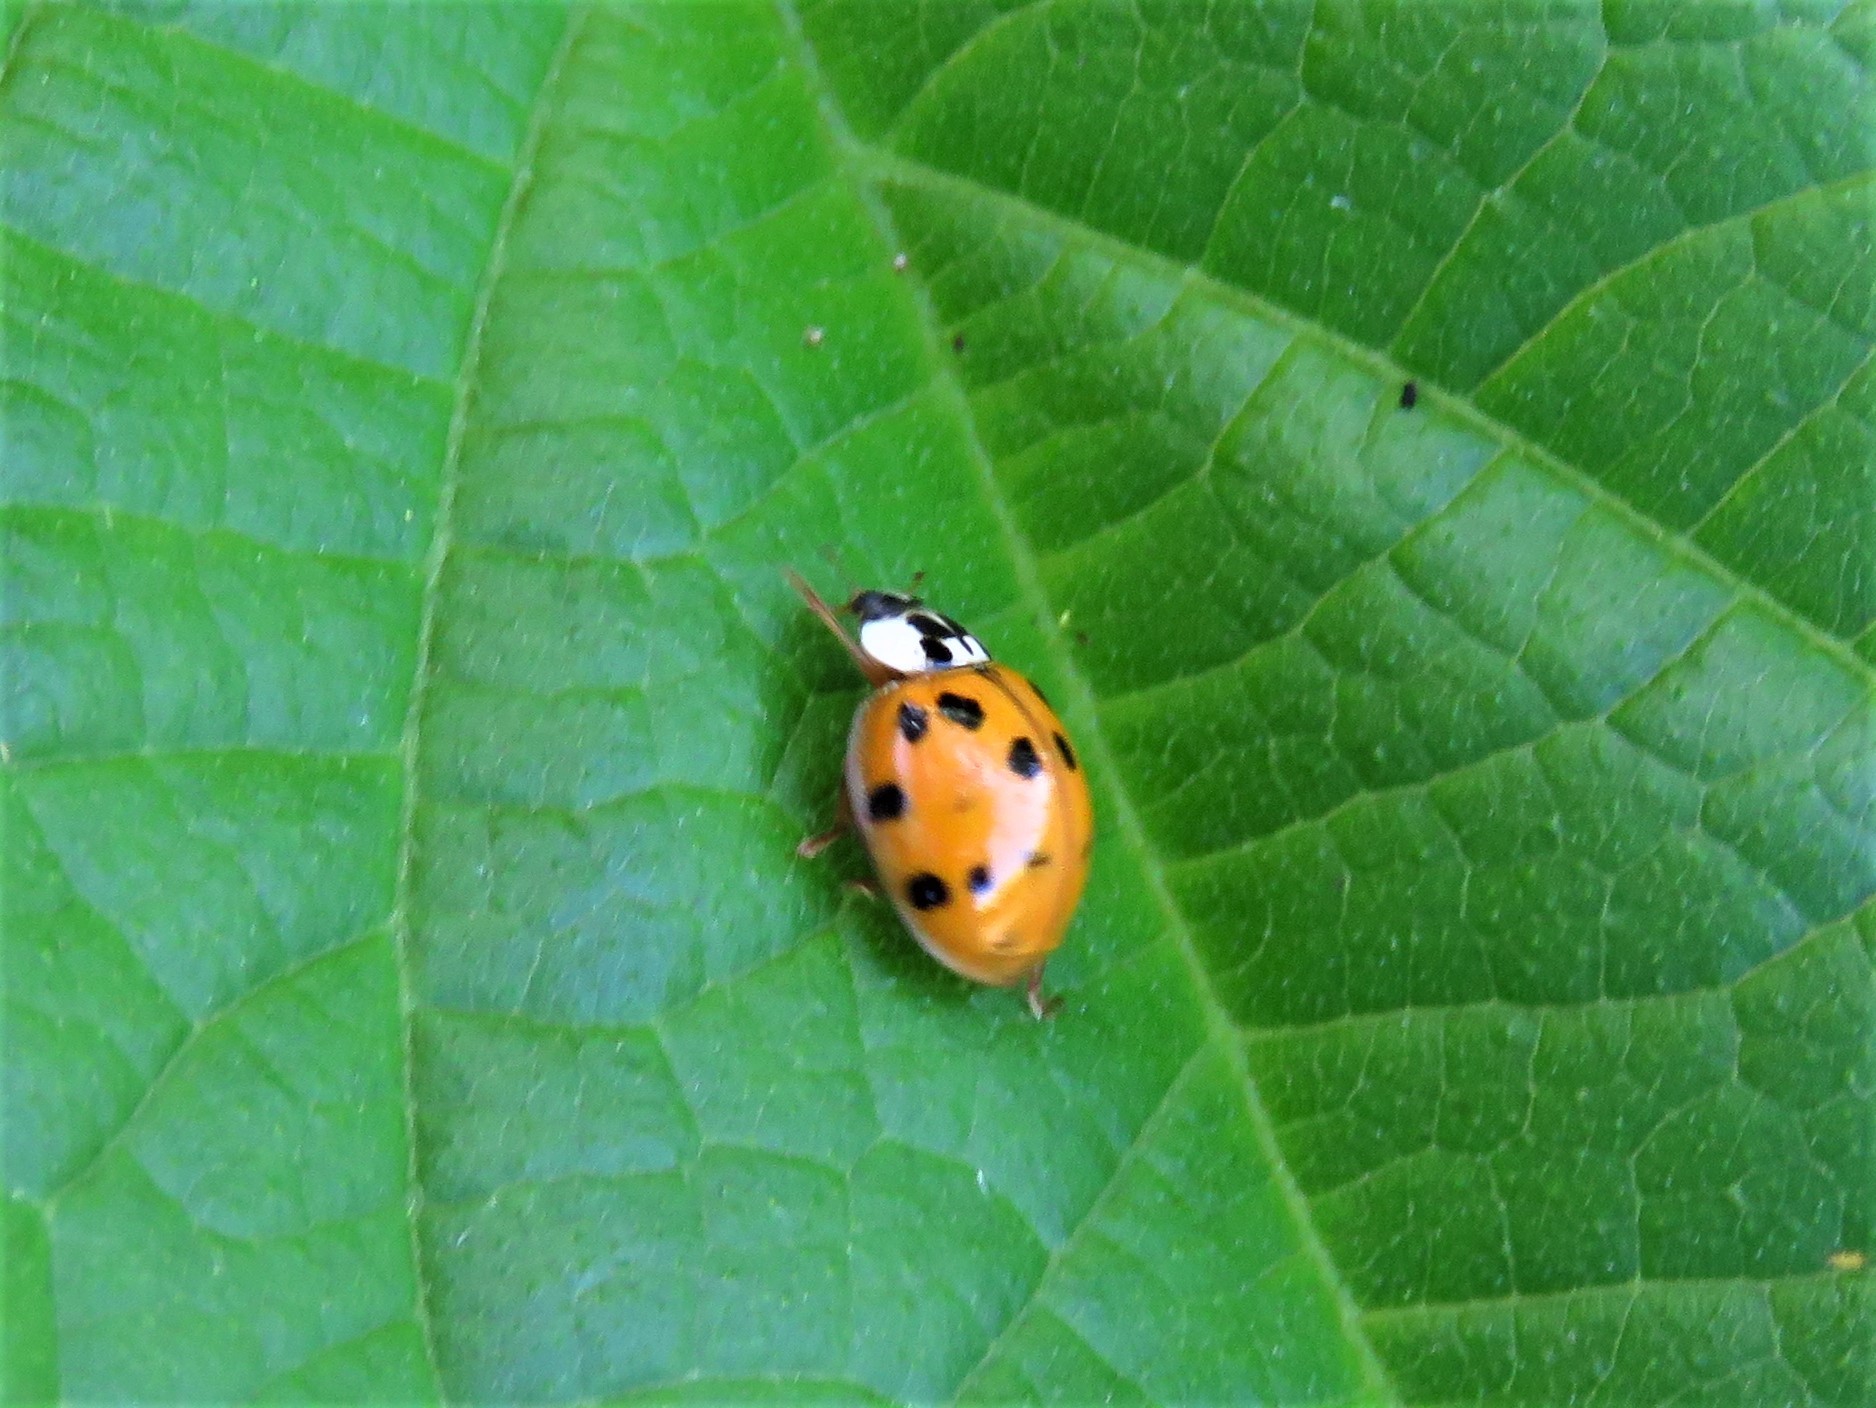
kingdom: Animalia
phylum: Arthropoda
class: Insecta
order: Coleoptera
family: Coccinellidae
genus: Harmonia
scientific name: Harmonia axyridis
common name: Harlequin ladybird
